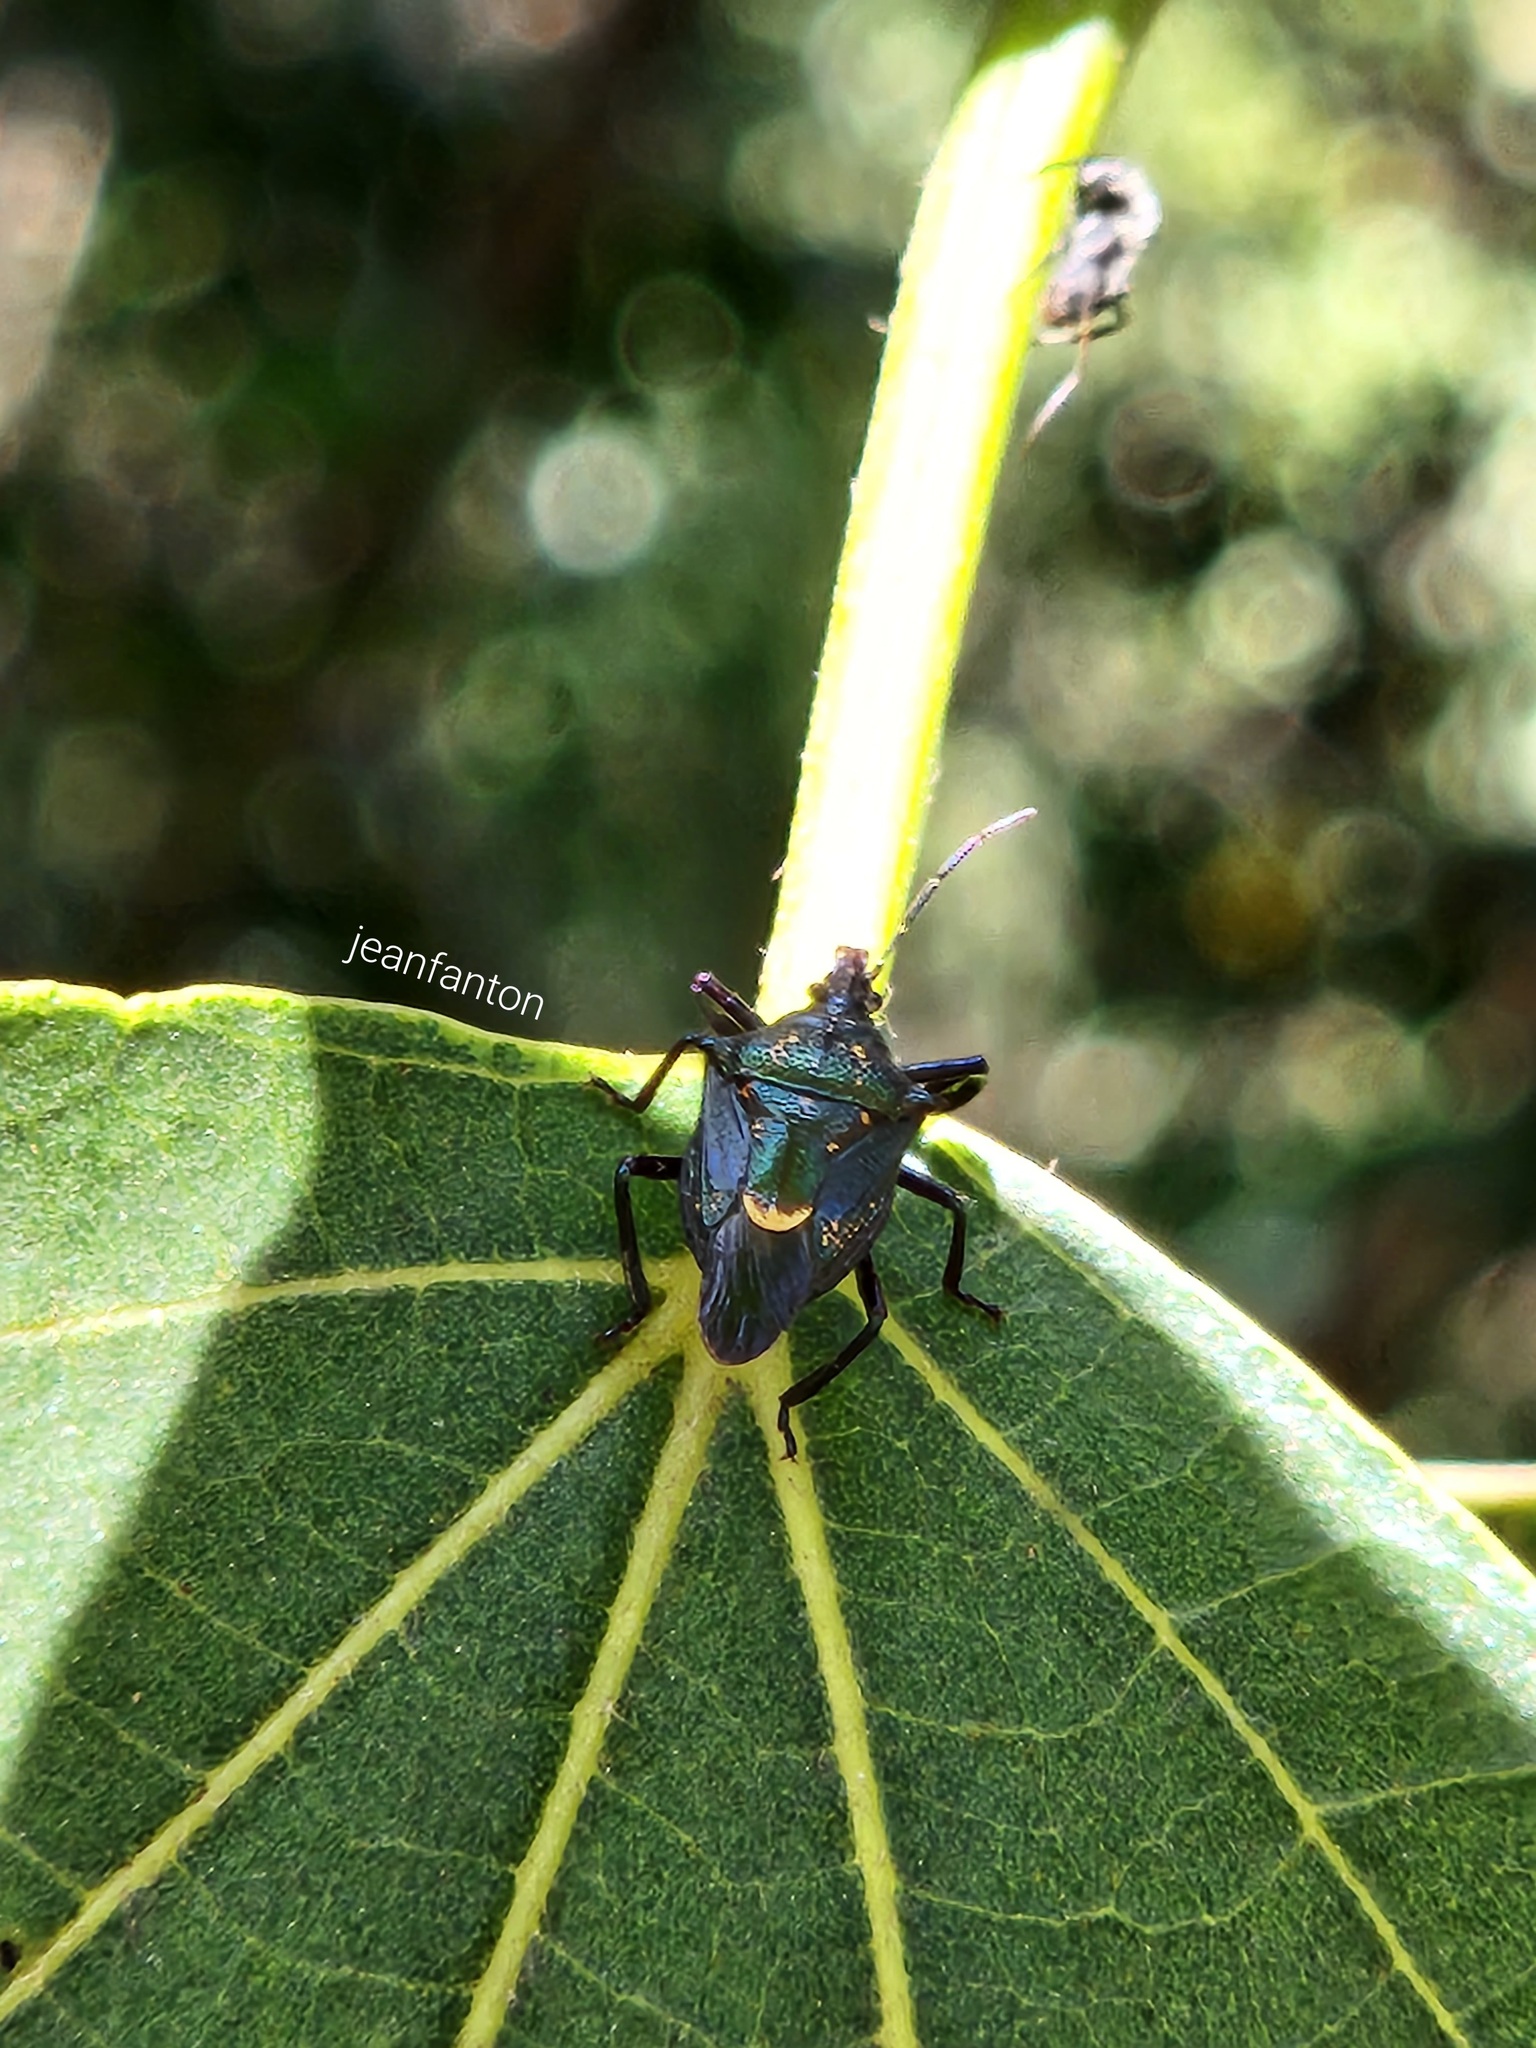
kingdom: Animalia
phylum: Arthropoda
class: Insecta
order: Hemiptera
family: Pentatomidae
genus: Heteroscelis
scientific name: Heteroscelis servillii
